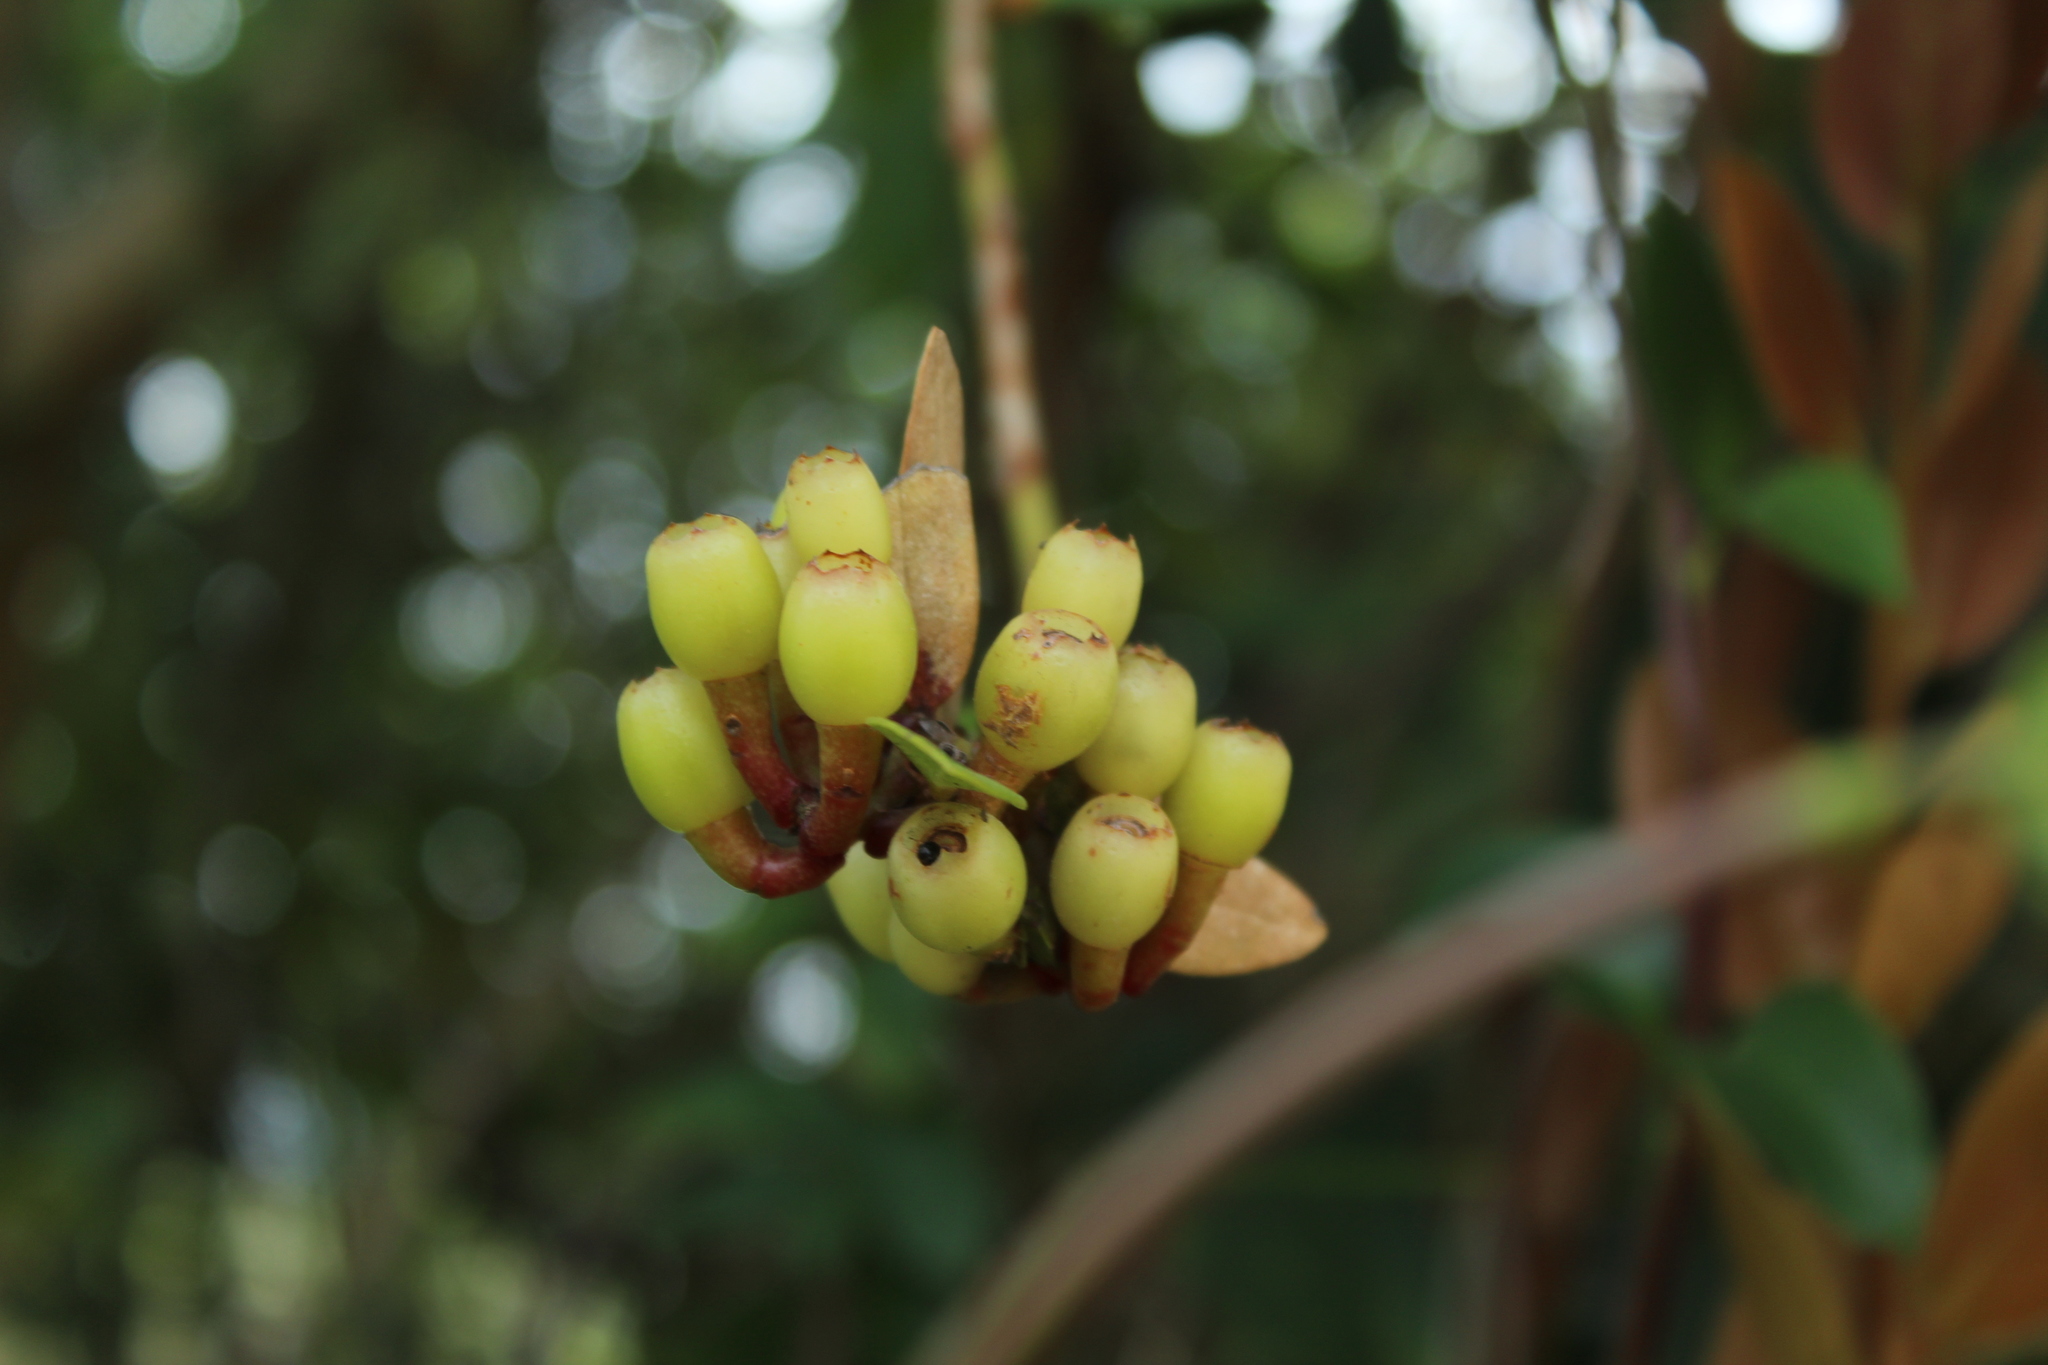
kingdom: Plantae
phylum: Tracheophyta
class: Magnoliopsida
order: Ericales
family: Ericaceae
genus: Macleania
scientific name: Macleania rupestris
